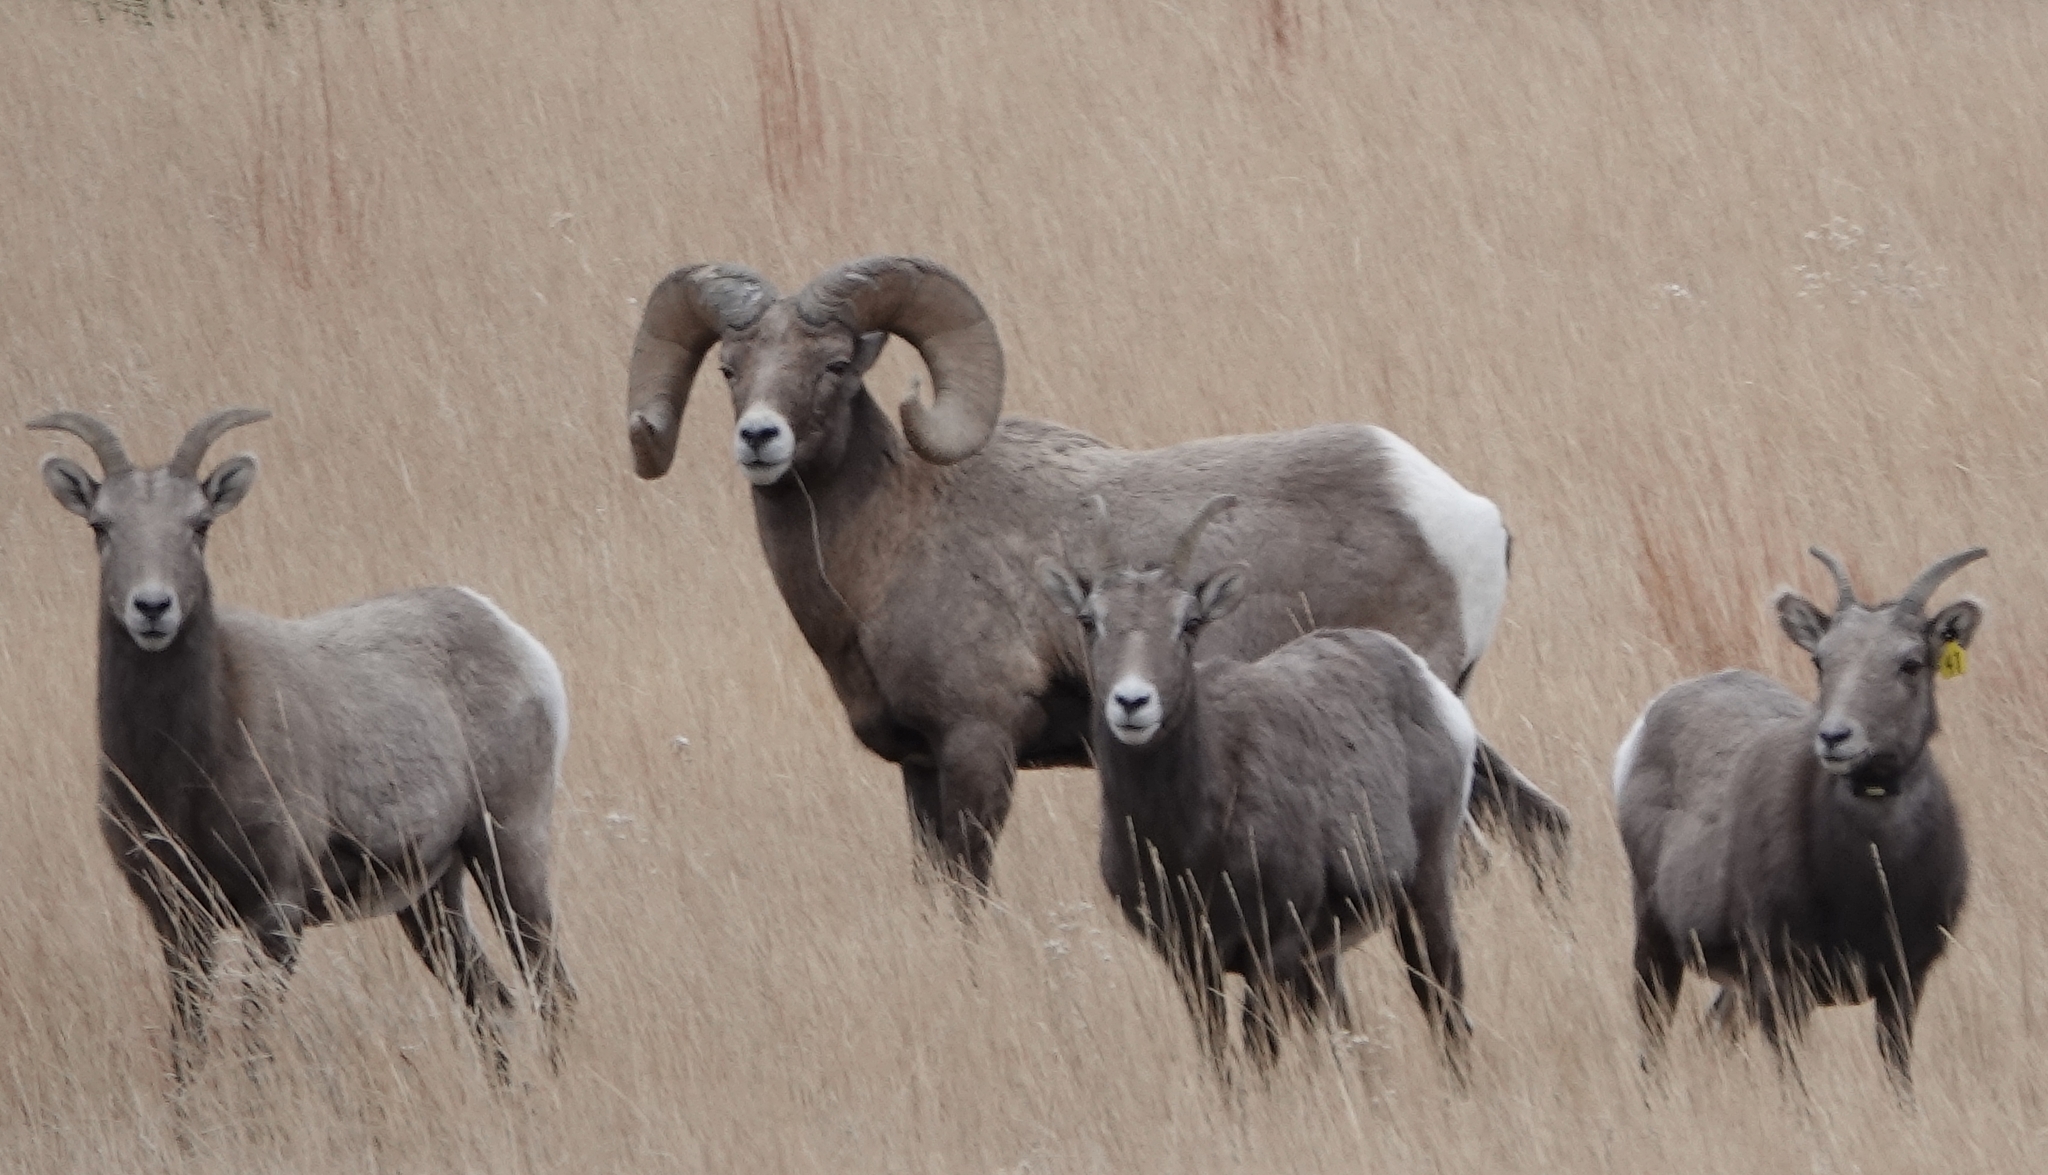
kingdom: Animalia
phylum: Chordata
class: Mammalia
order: Artiodactyla
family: Bovidae
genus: Ovis
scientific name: Ovis canadensis
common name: Bighorn sheep
